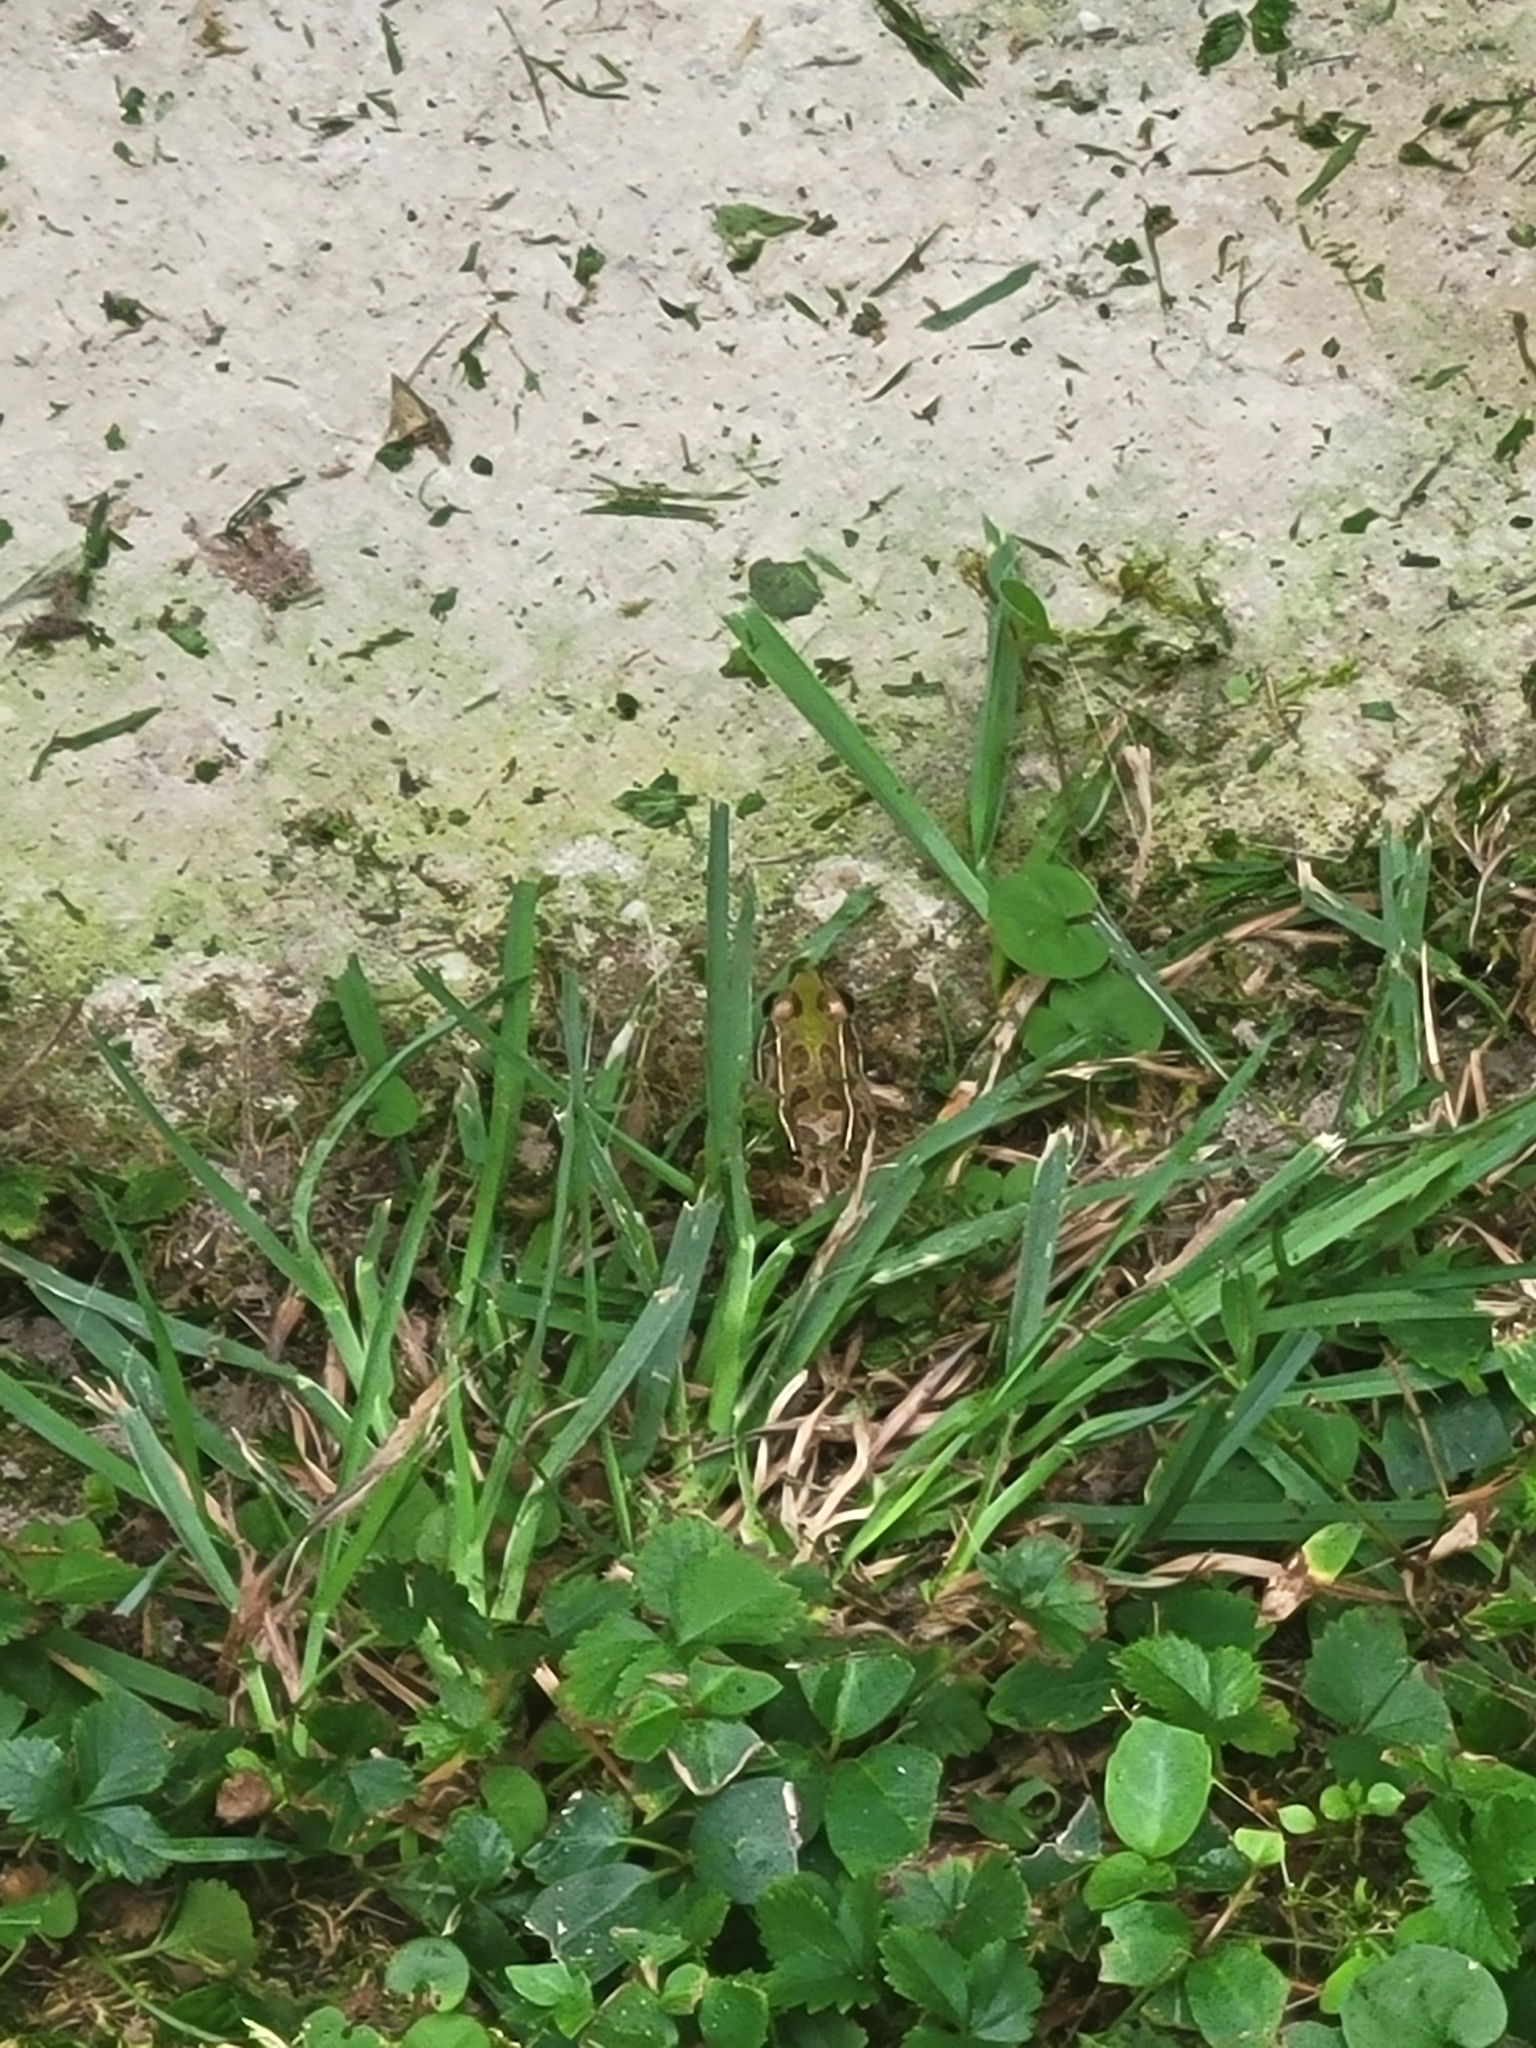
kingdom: Animalia
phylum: Chordata
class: Amphibia
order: Anura
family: Ranidae
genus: Lithobates
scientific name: Lithobates sphenocephalus
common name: Southern leopard frog
